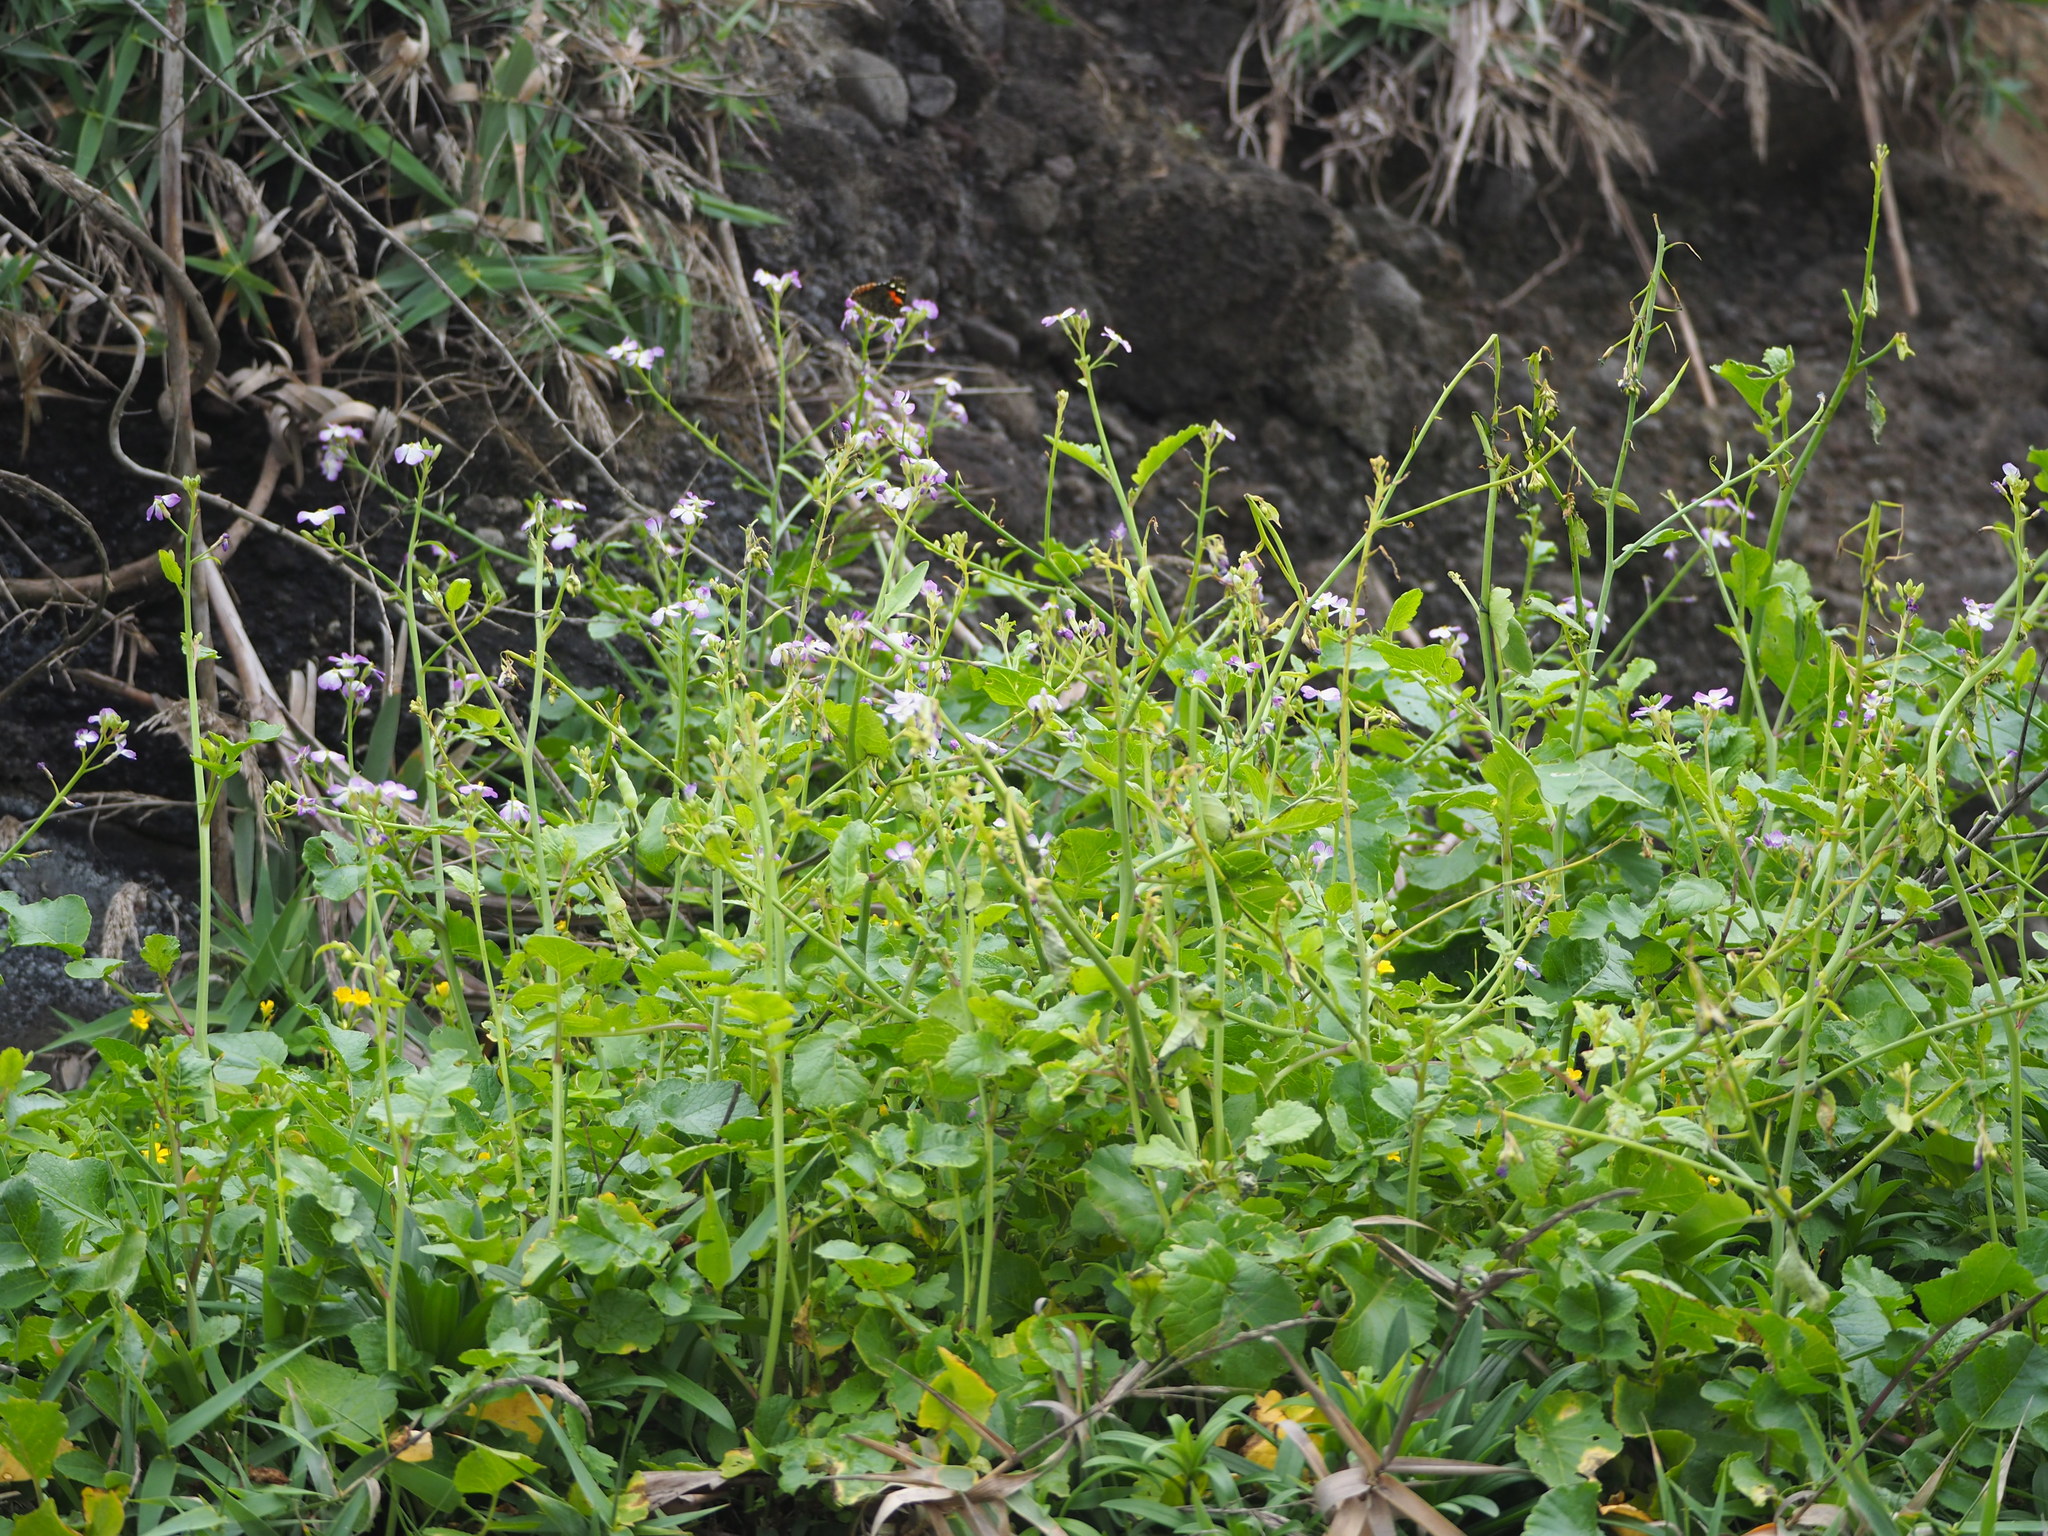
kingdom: Plantae
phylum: Tracheophyta
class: Magnoliopsida
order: Brassicales
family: Brassicaceae
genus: Raphanus
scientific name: Raphanus sativus
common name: Cultivated radish
